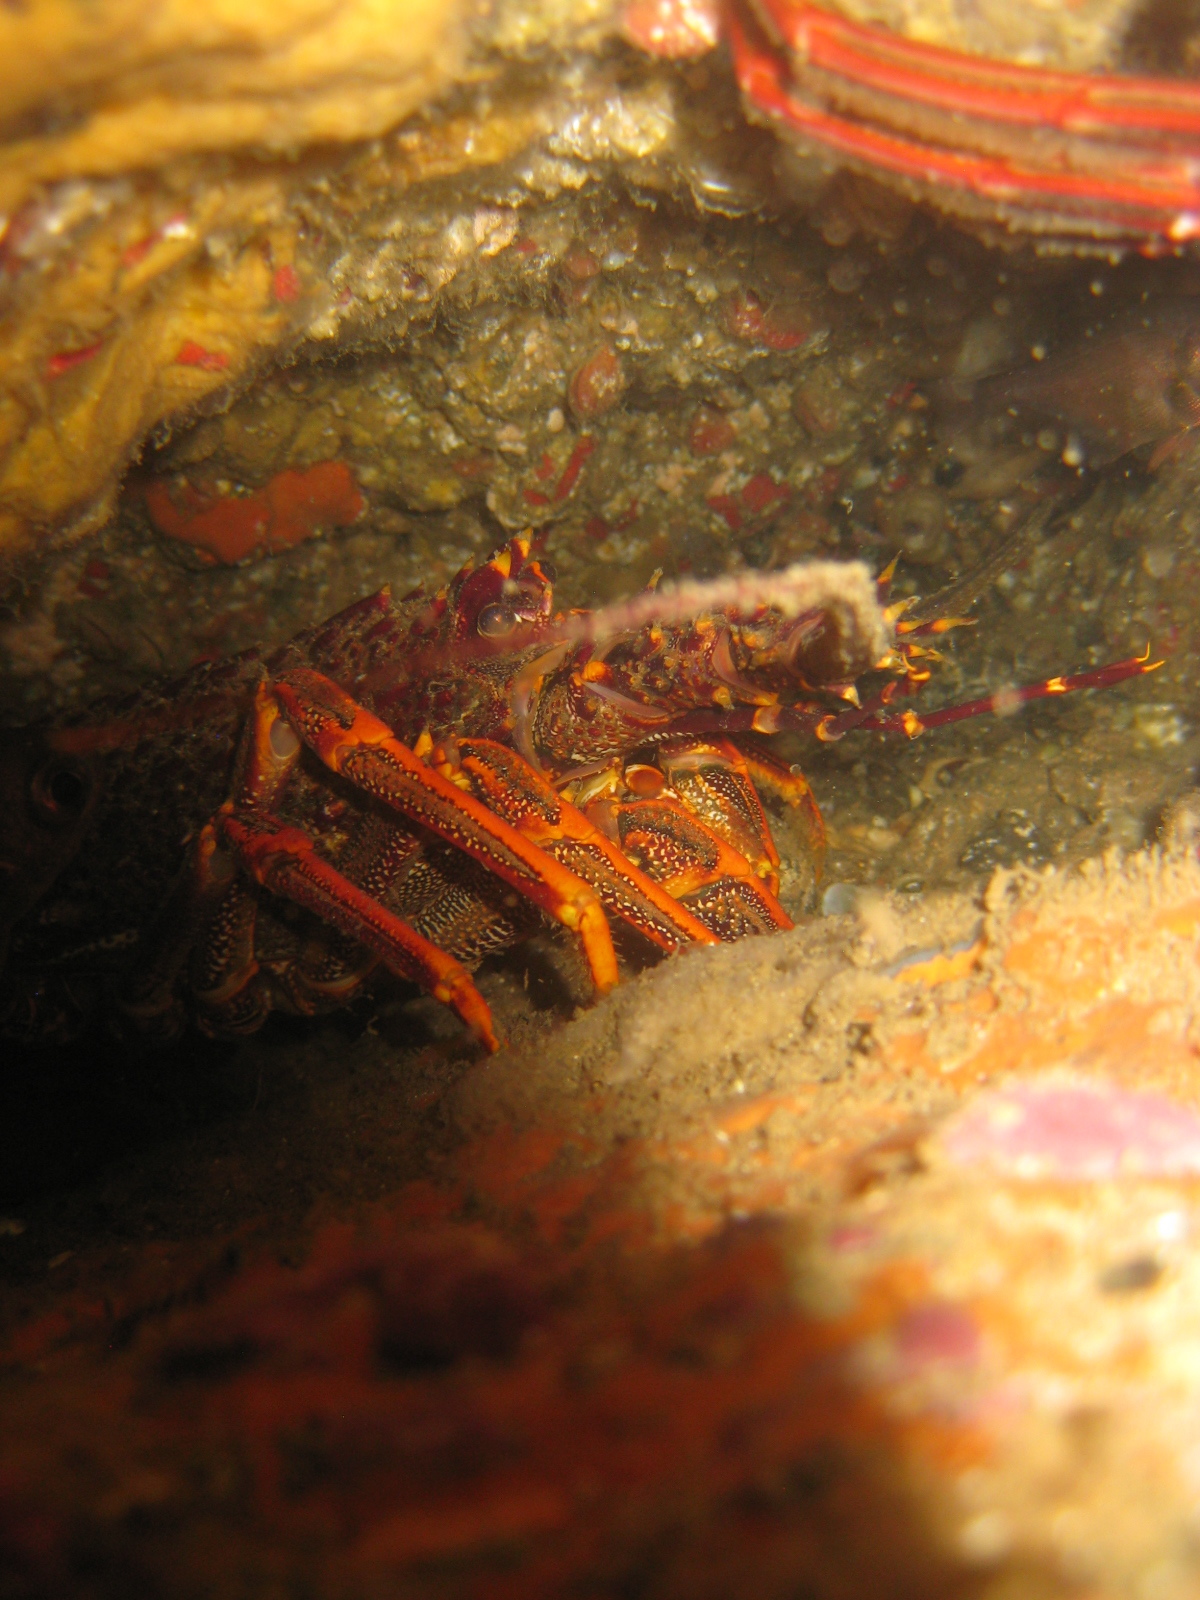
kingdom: Animalia
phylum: Arthropoda
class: Malacostraca
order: Decapoda
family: Palinuridae
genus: Jasus
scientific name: Jasus edwardsii
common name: Red rock lobster
